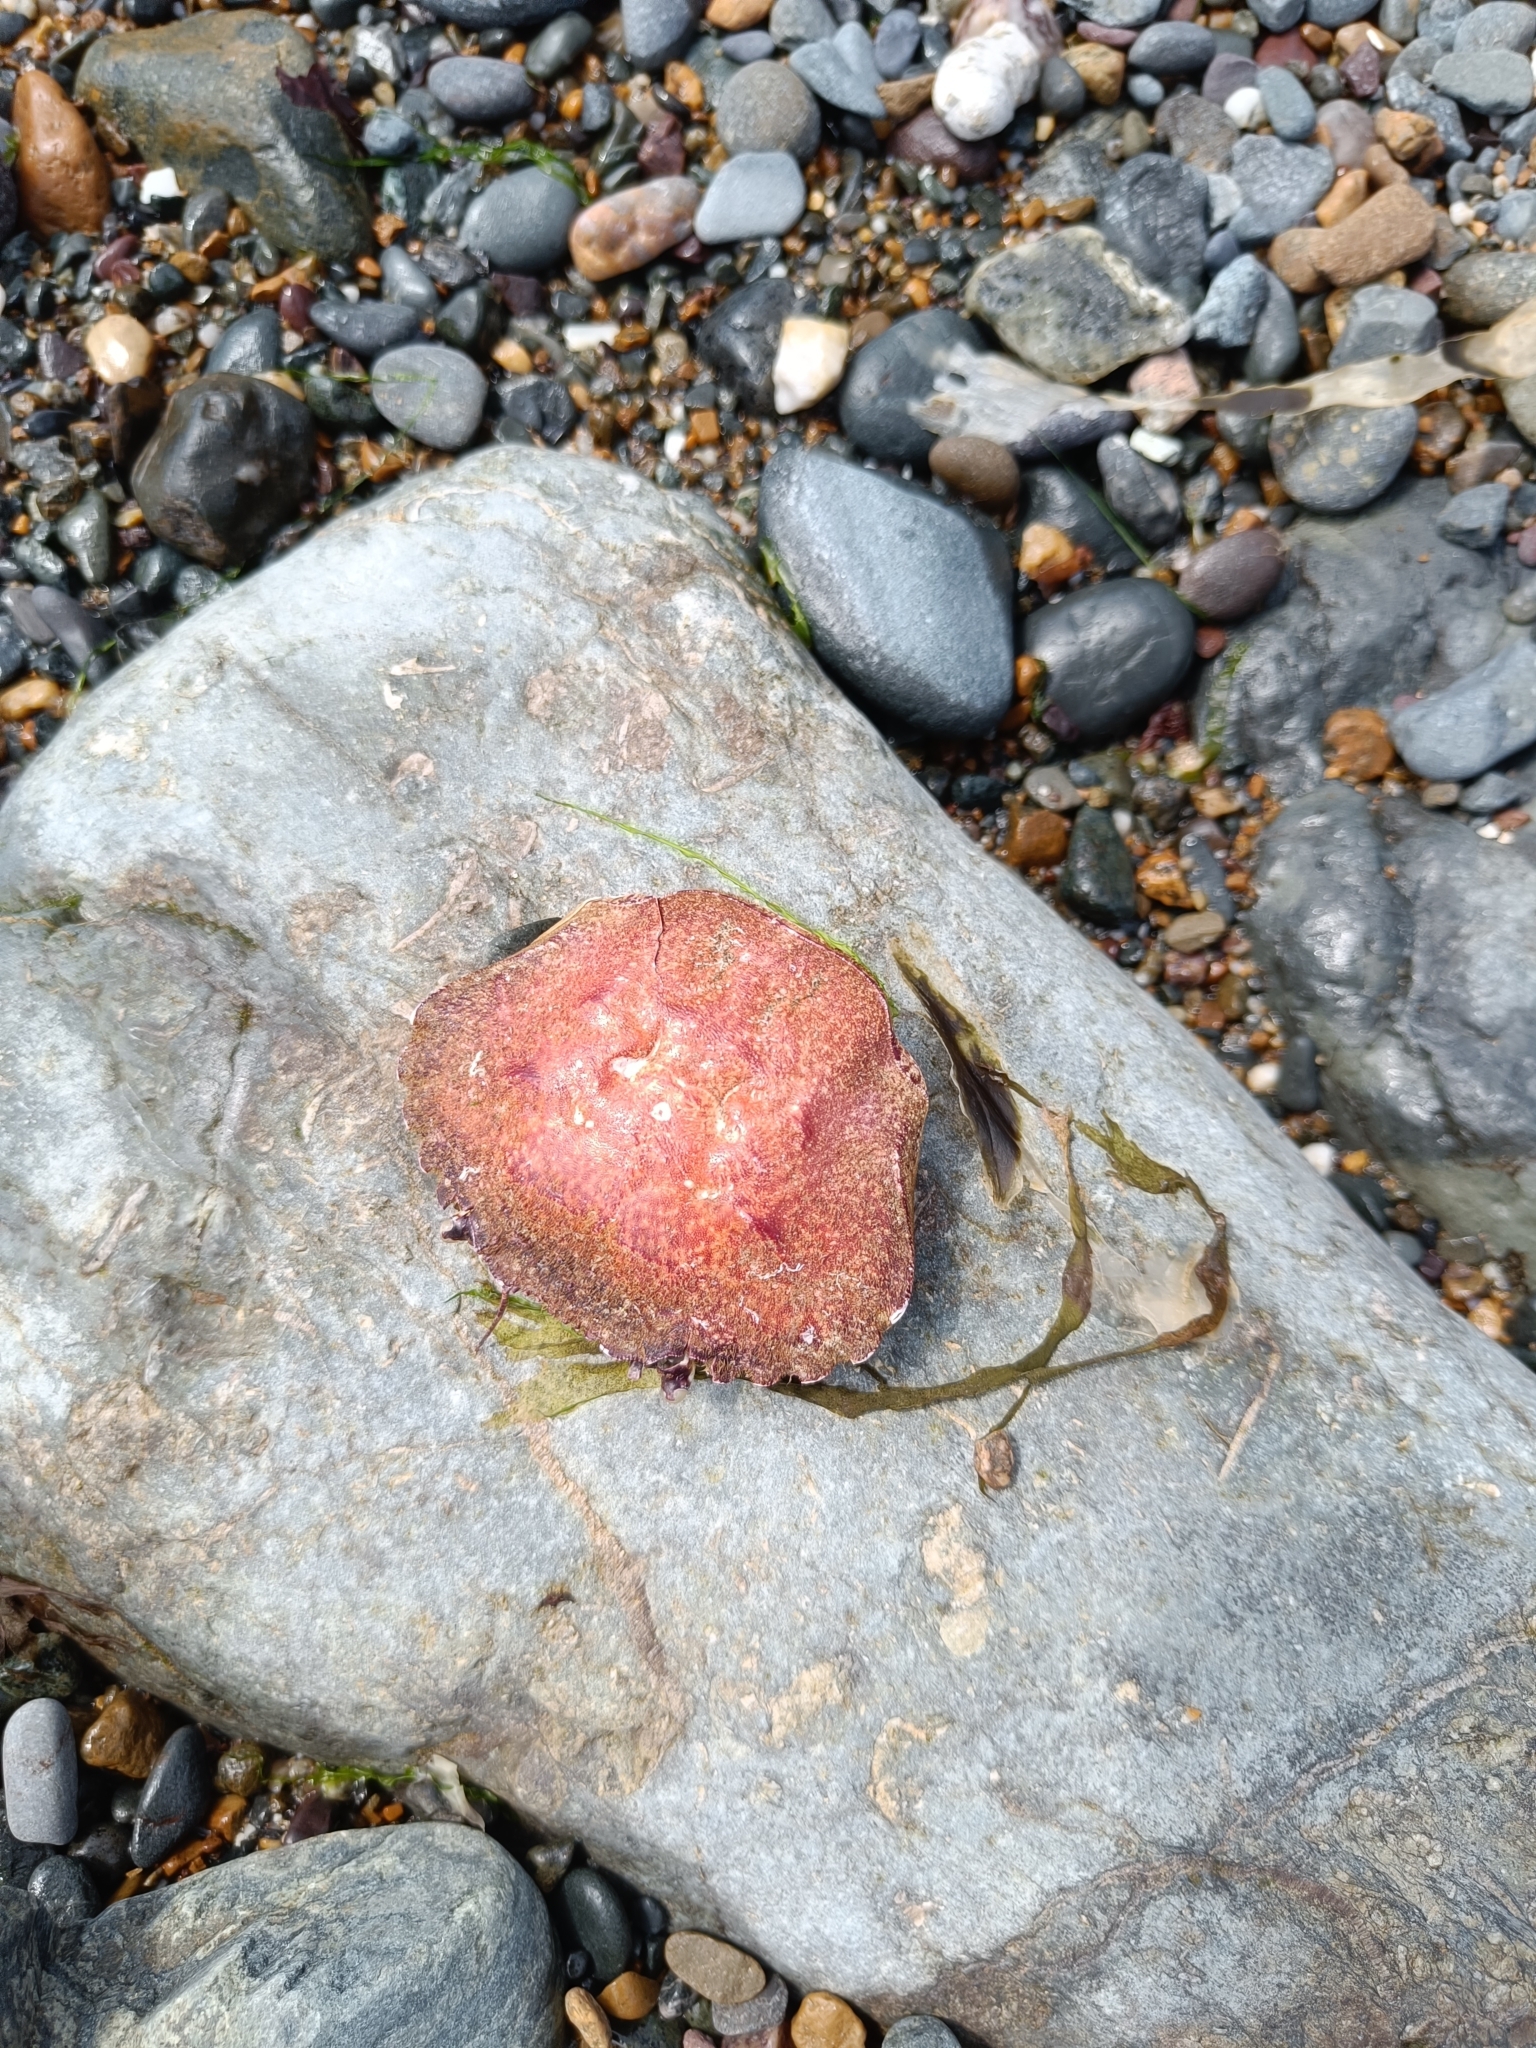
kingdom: Animalia
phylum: Arthropoda
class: Malacostraca
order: Decapoda
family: Polybiidae
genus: Necora
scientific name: Necora puber
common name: Velvet swimming crab
